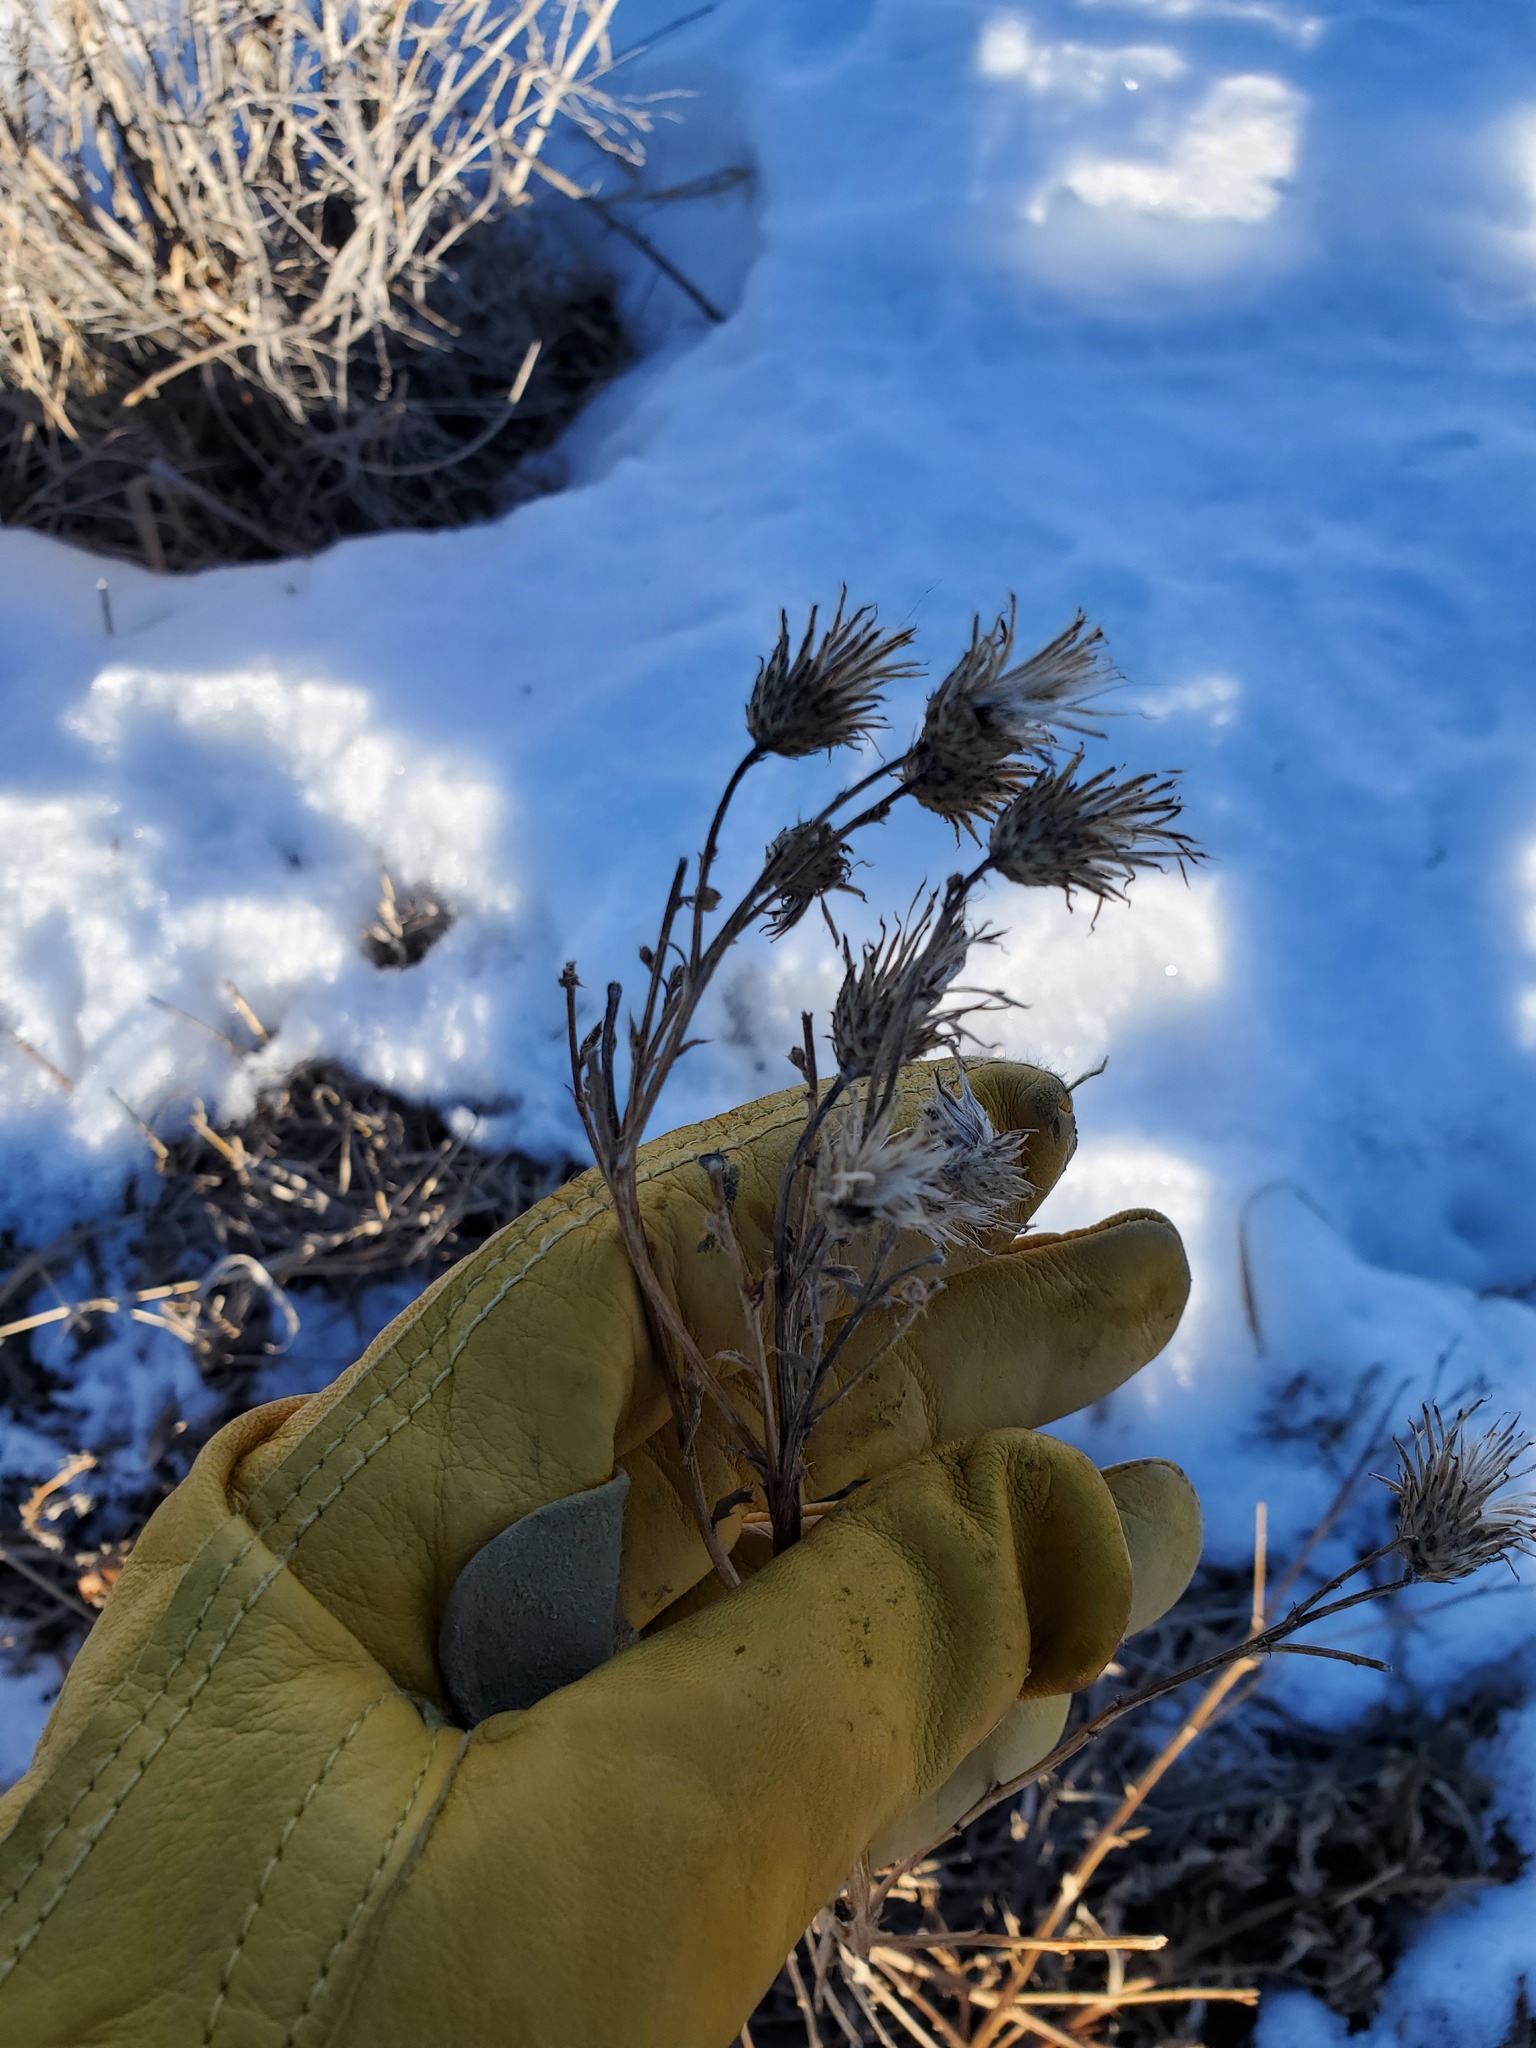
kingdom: Plantae
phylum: Tracheophyta
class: Magnoliopsida
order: Asterales
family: Asteraceae
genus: Cirsium
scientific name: Cirsium arvense
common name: Creeping thistle
